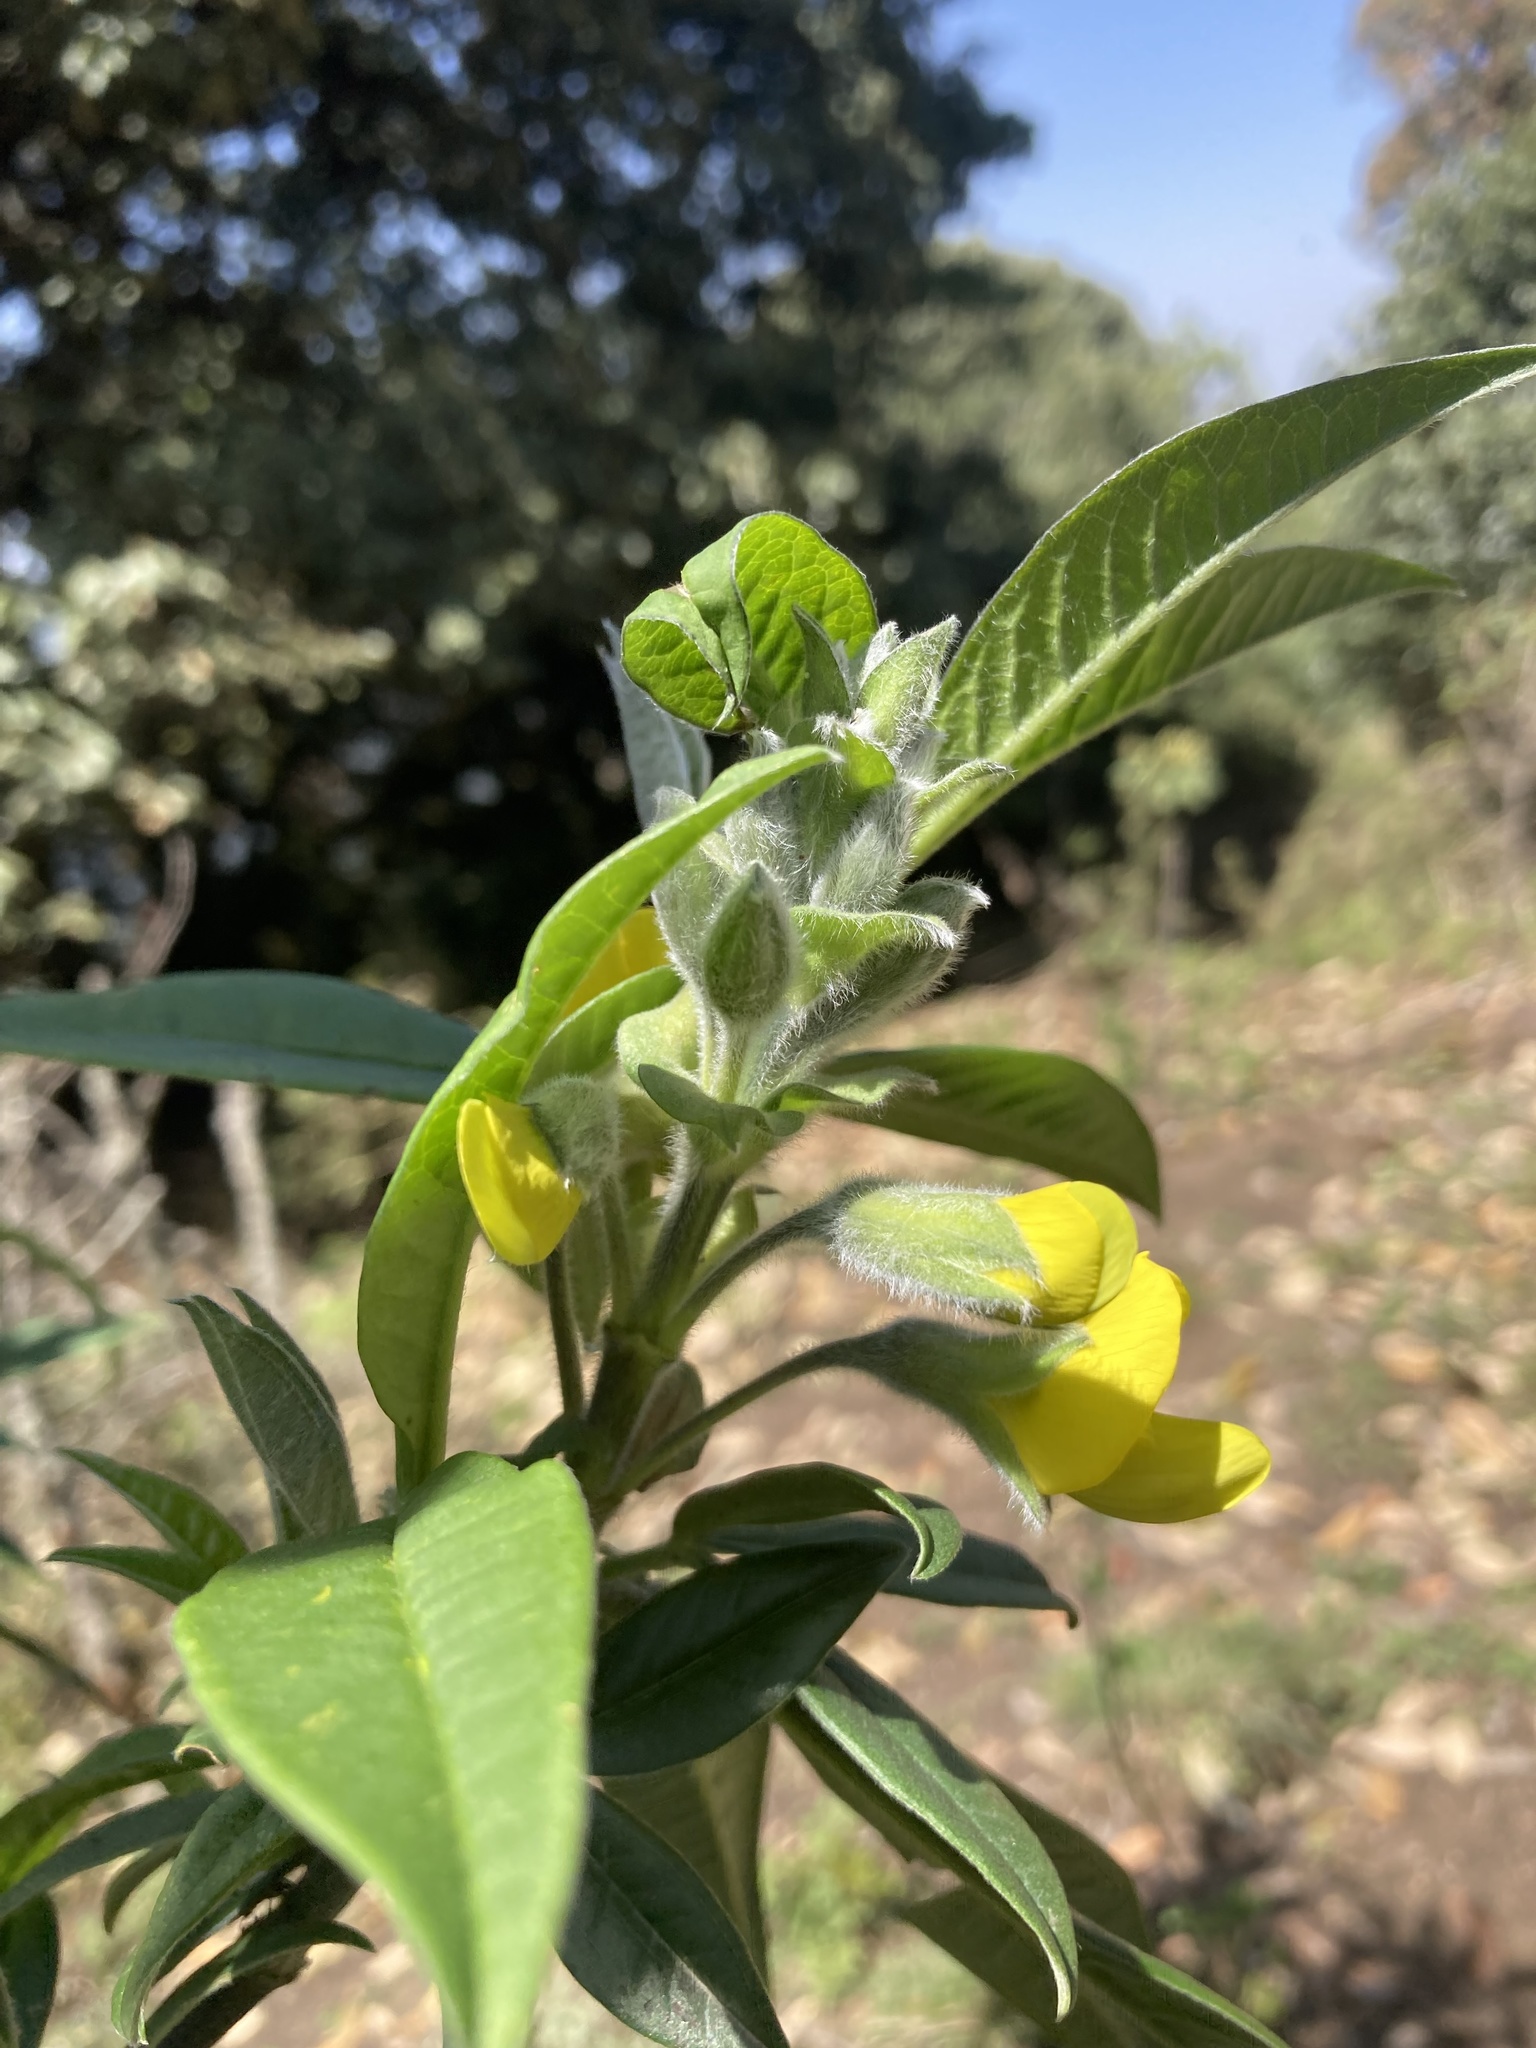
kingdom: Plantae
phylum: Tracheophyta
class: Magnoliopsida
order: Fabales
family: Fabaceae
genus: Piptanthus
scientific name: Piptanthus nepalensis
